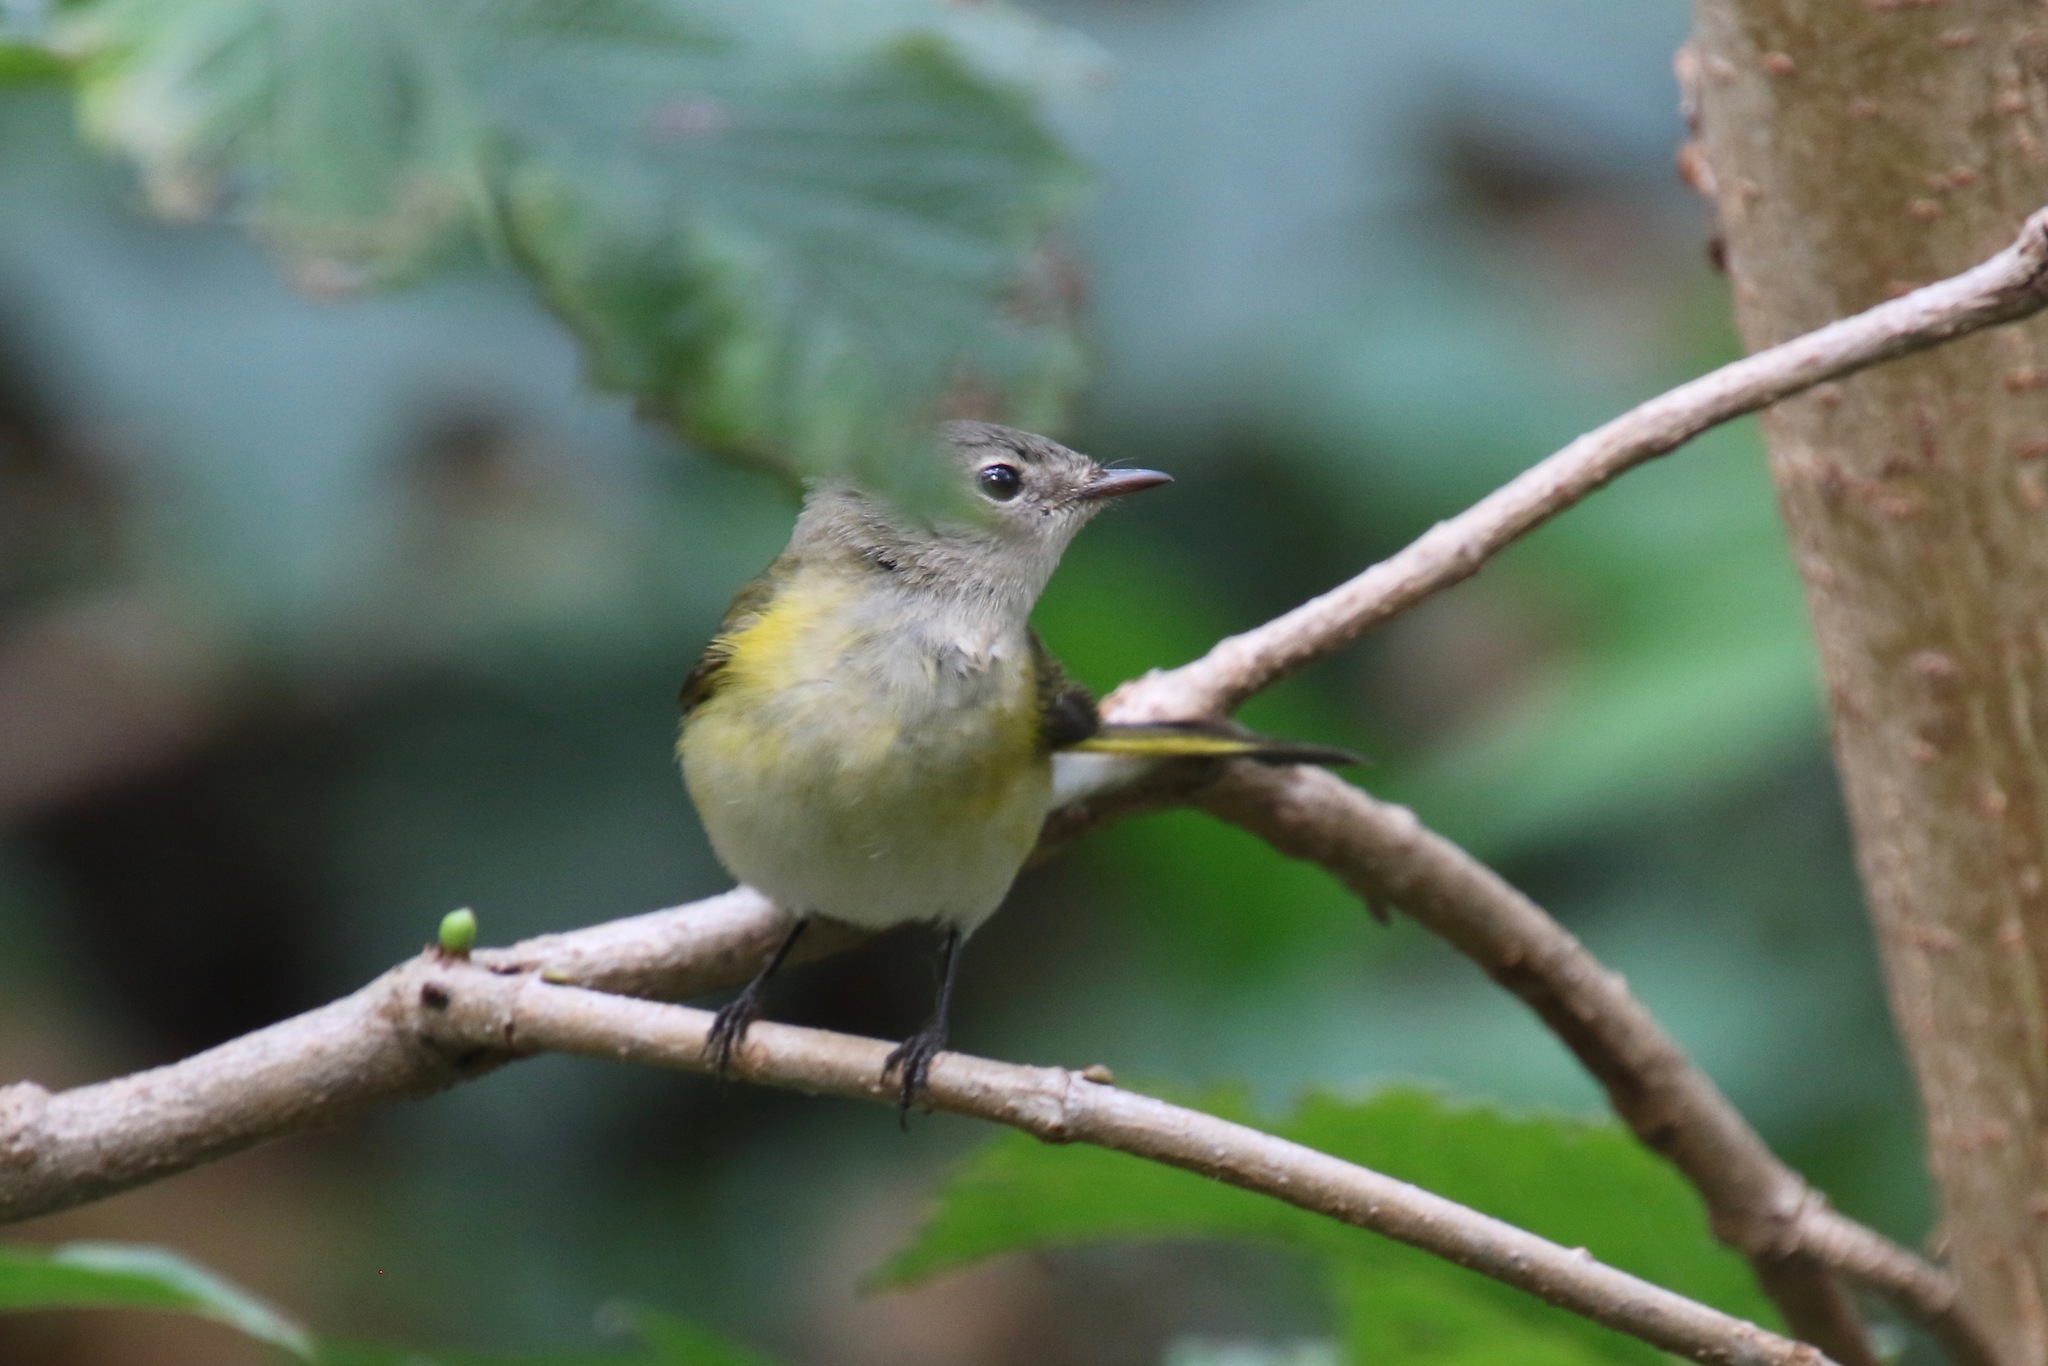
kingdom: Animalia
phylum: Chordata
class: Aves
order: Passeriformes
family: Parulidae
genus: Setophaga
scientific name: Setophaga ruticilla
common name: American redstart
